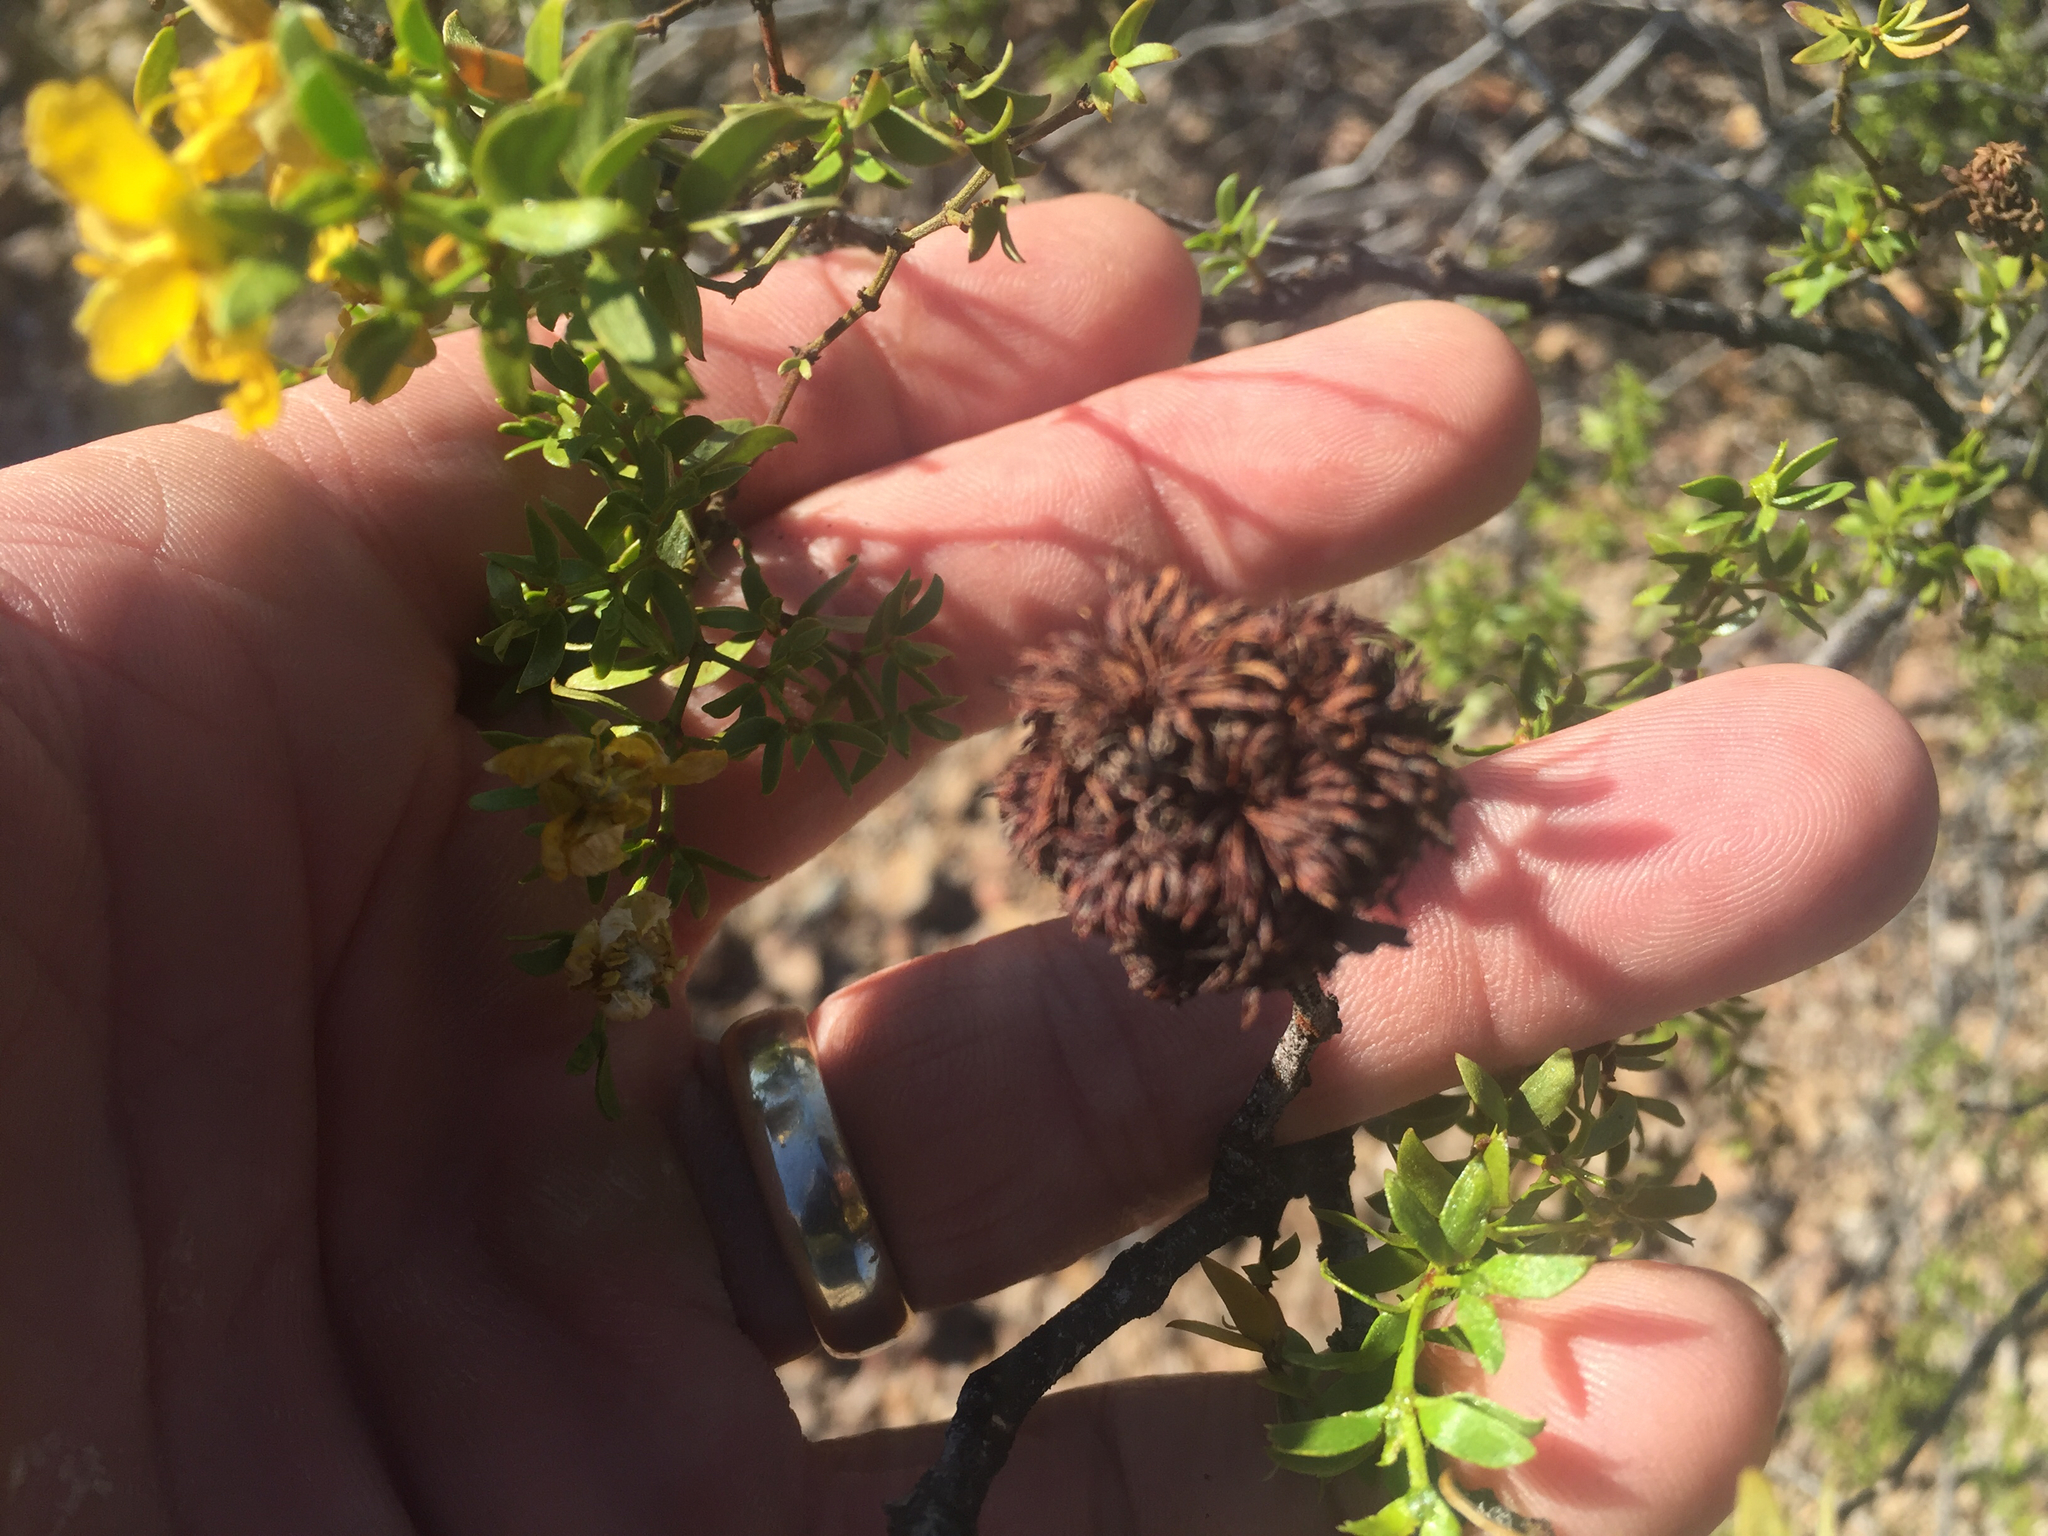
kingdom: Animalia
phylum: Arthropoda
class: Insecta
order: Diptera
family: Cecidomyiidae
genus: Asphondylia
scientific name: Asphondylia auripila
